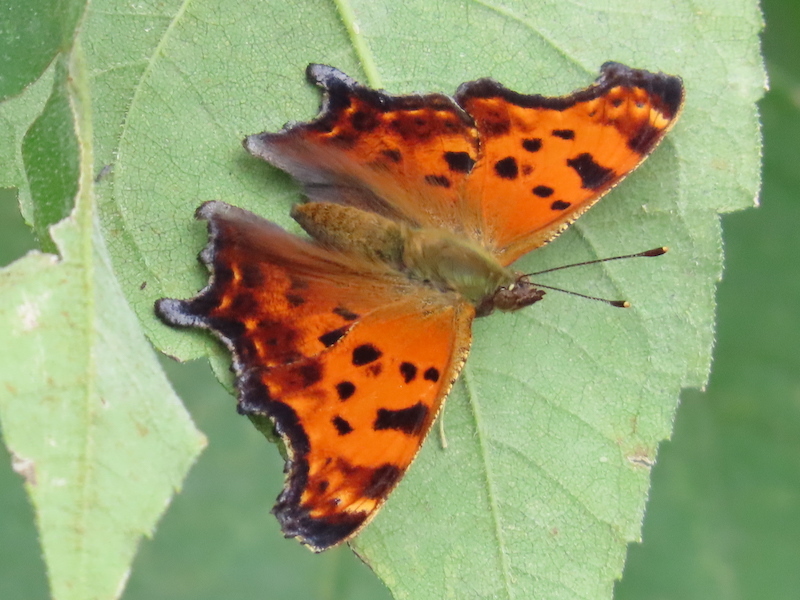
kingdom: Animalia
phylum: Arthropoda
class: Insecta
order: Lepidoptera
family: Nymphalidae
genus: Polygonia
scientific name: Polygonia comma
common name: Eastern comma
